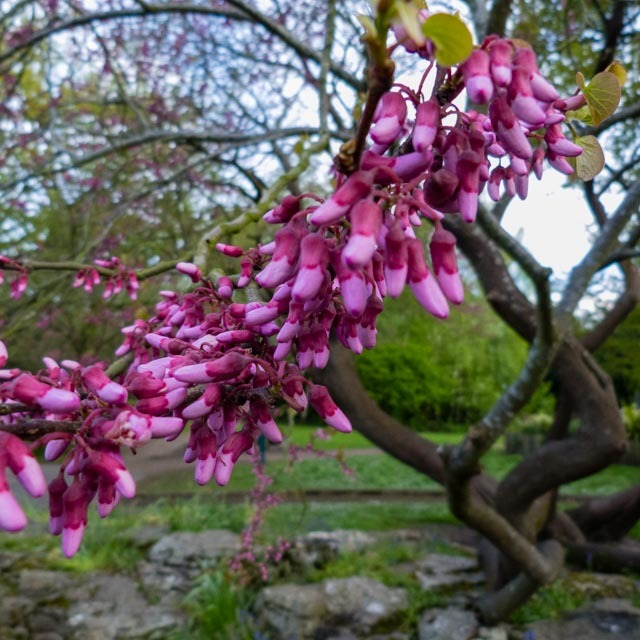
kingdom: Plantae
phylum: Tracheophyta
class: Magnoliopsida
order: Fabales
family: Fabaceae
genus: Cercis
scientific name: Cercis siliquastrum
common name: Judas tree
